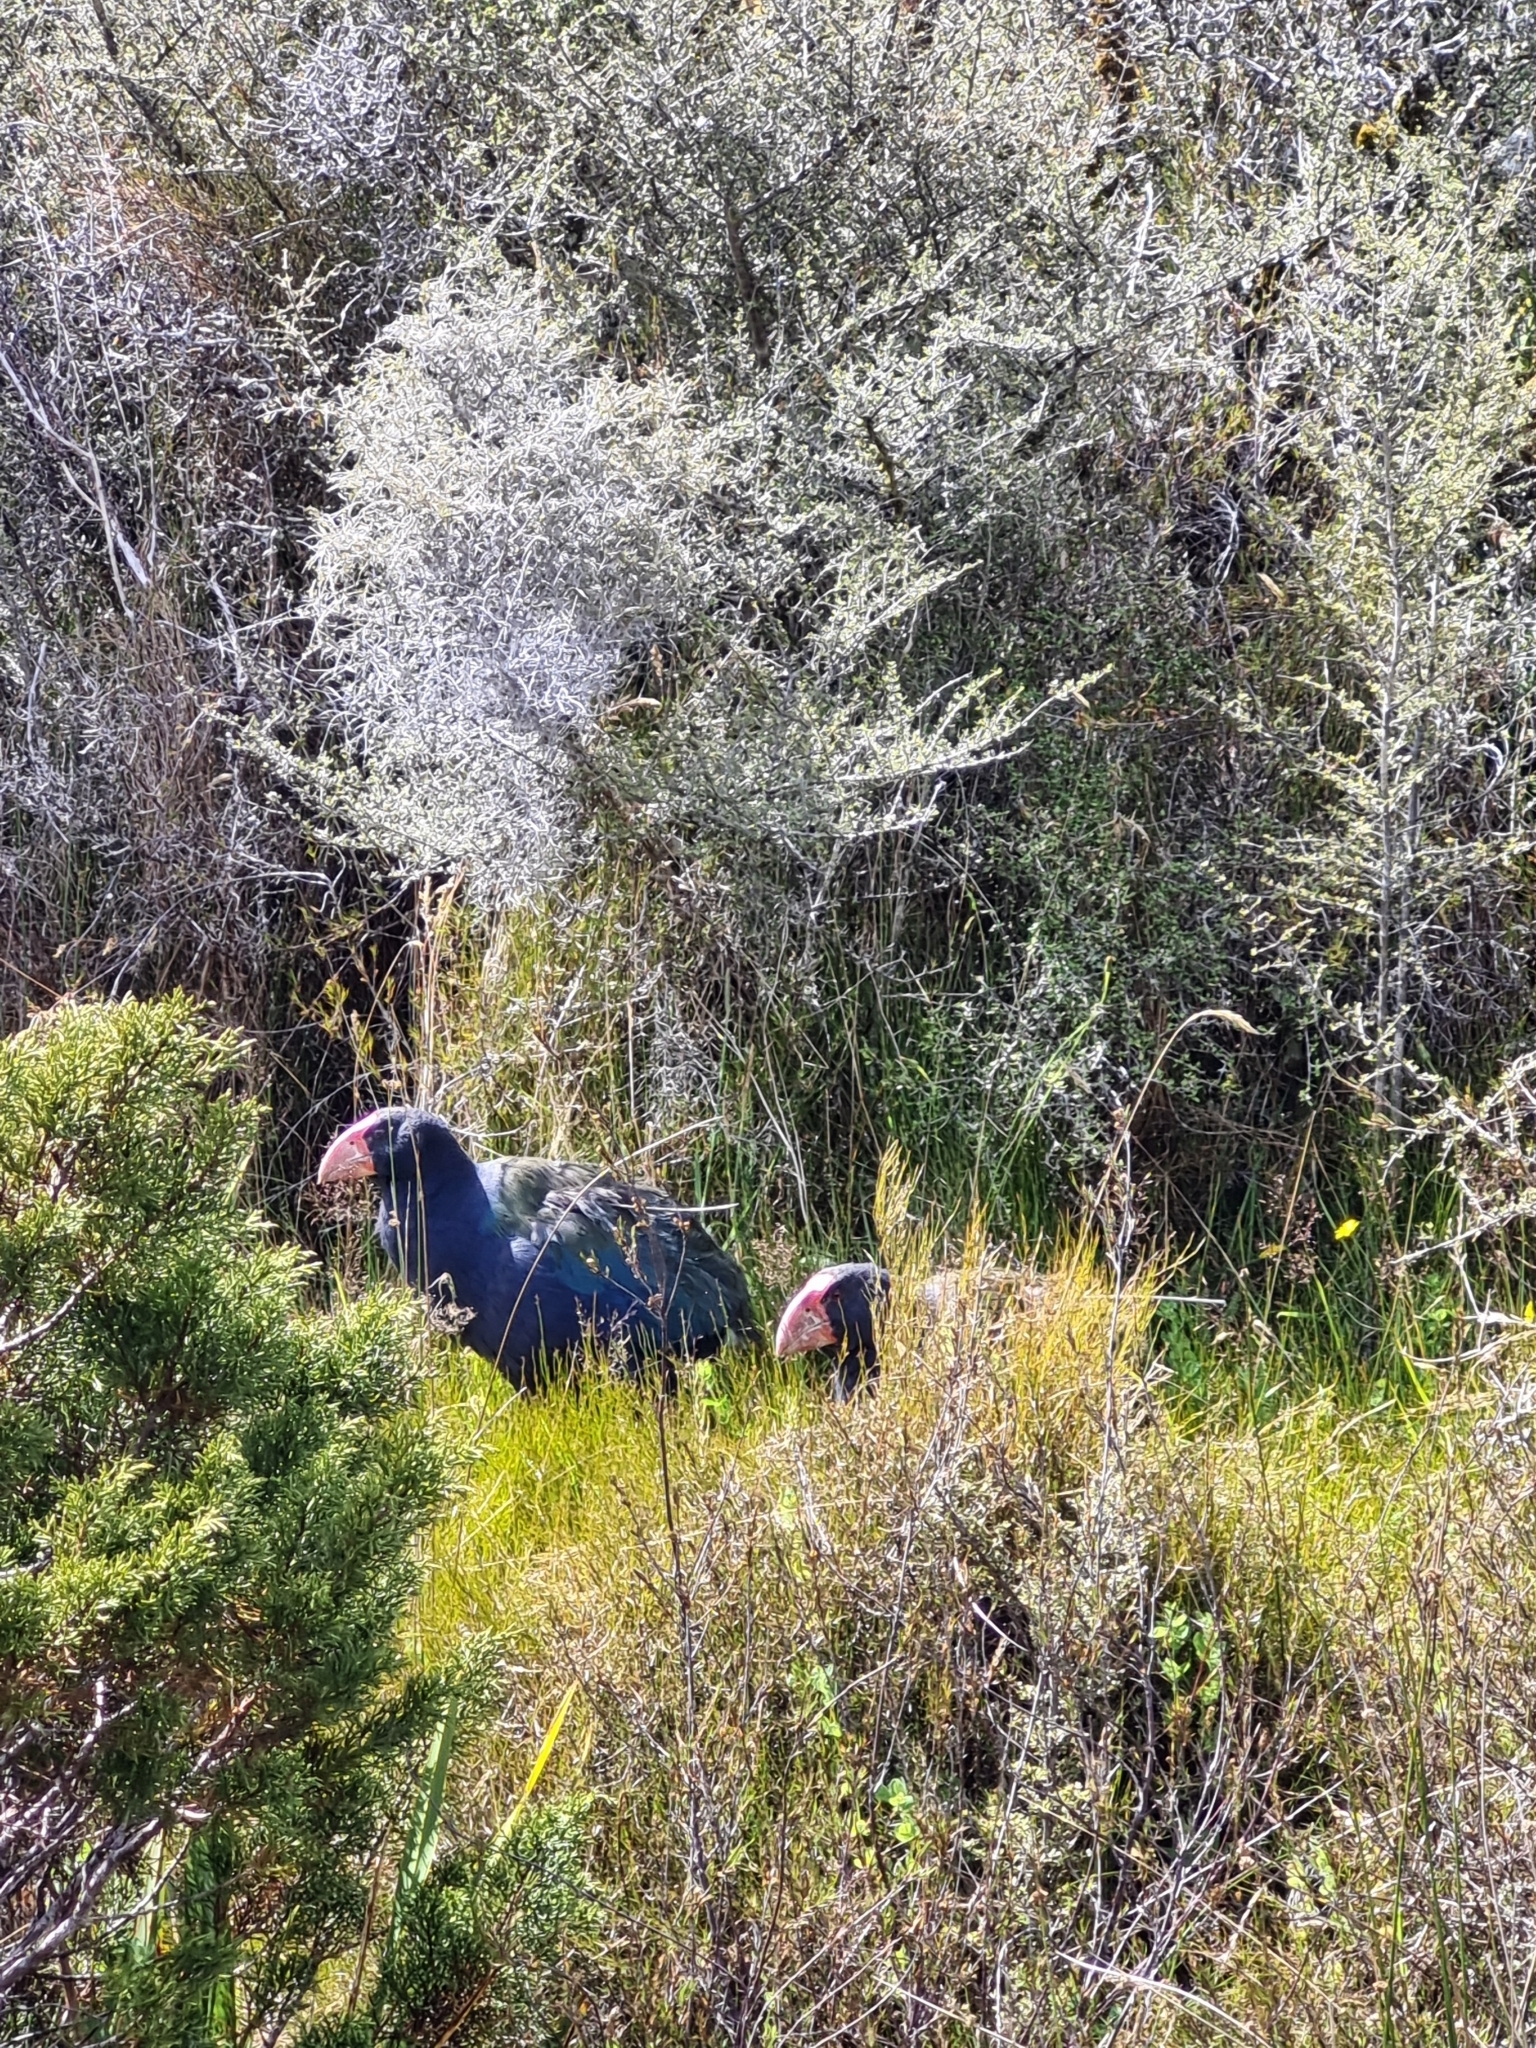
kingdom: Animalia
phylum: Chordata
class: Aves
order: Gruiformes
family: Rallidae
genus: Porphyrio
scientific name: Porphyrio hochstetteri
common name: South island takahe
